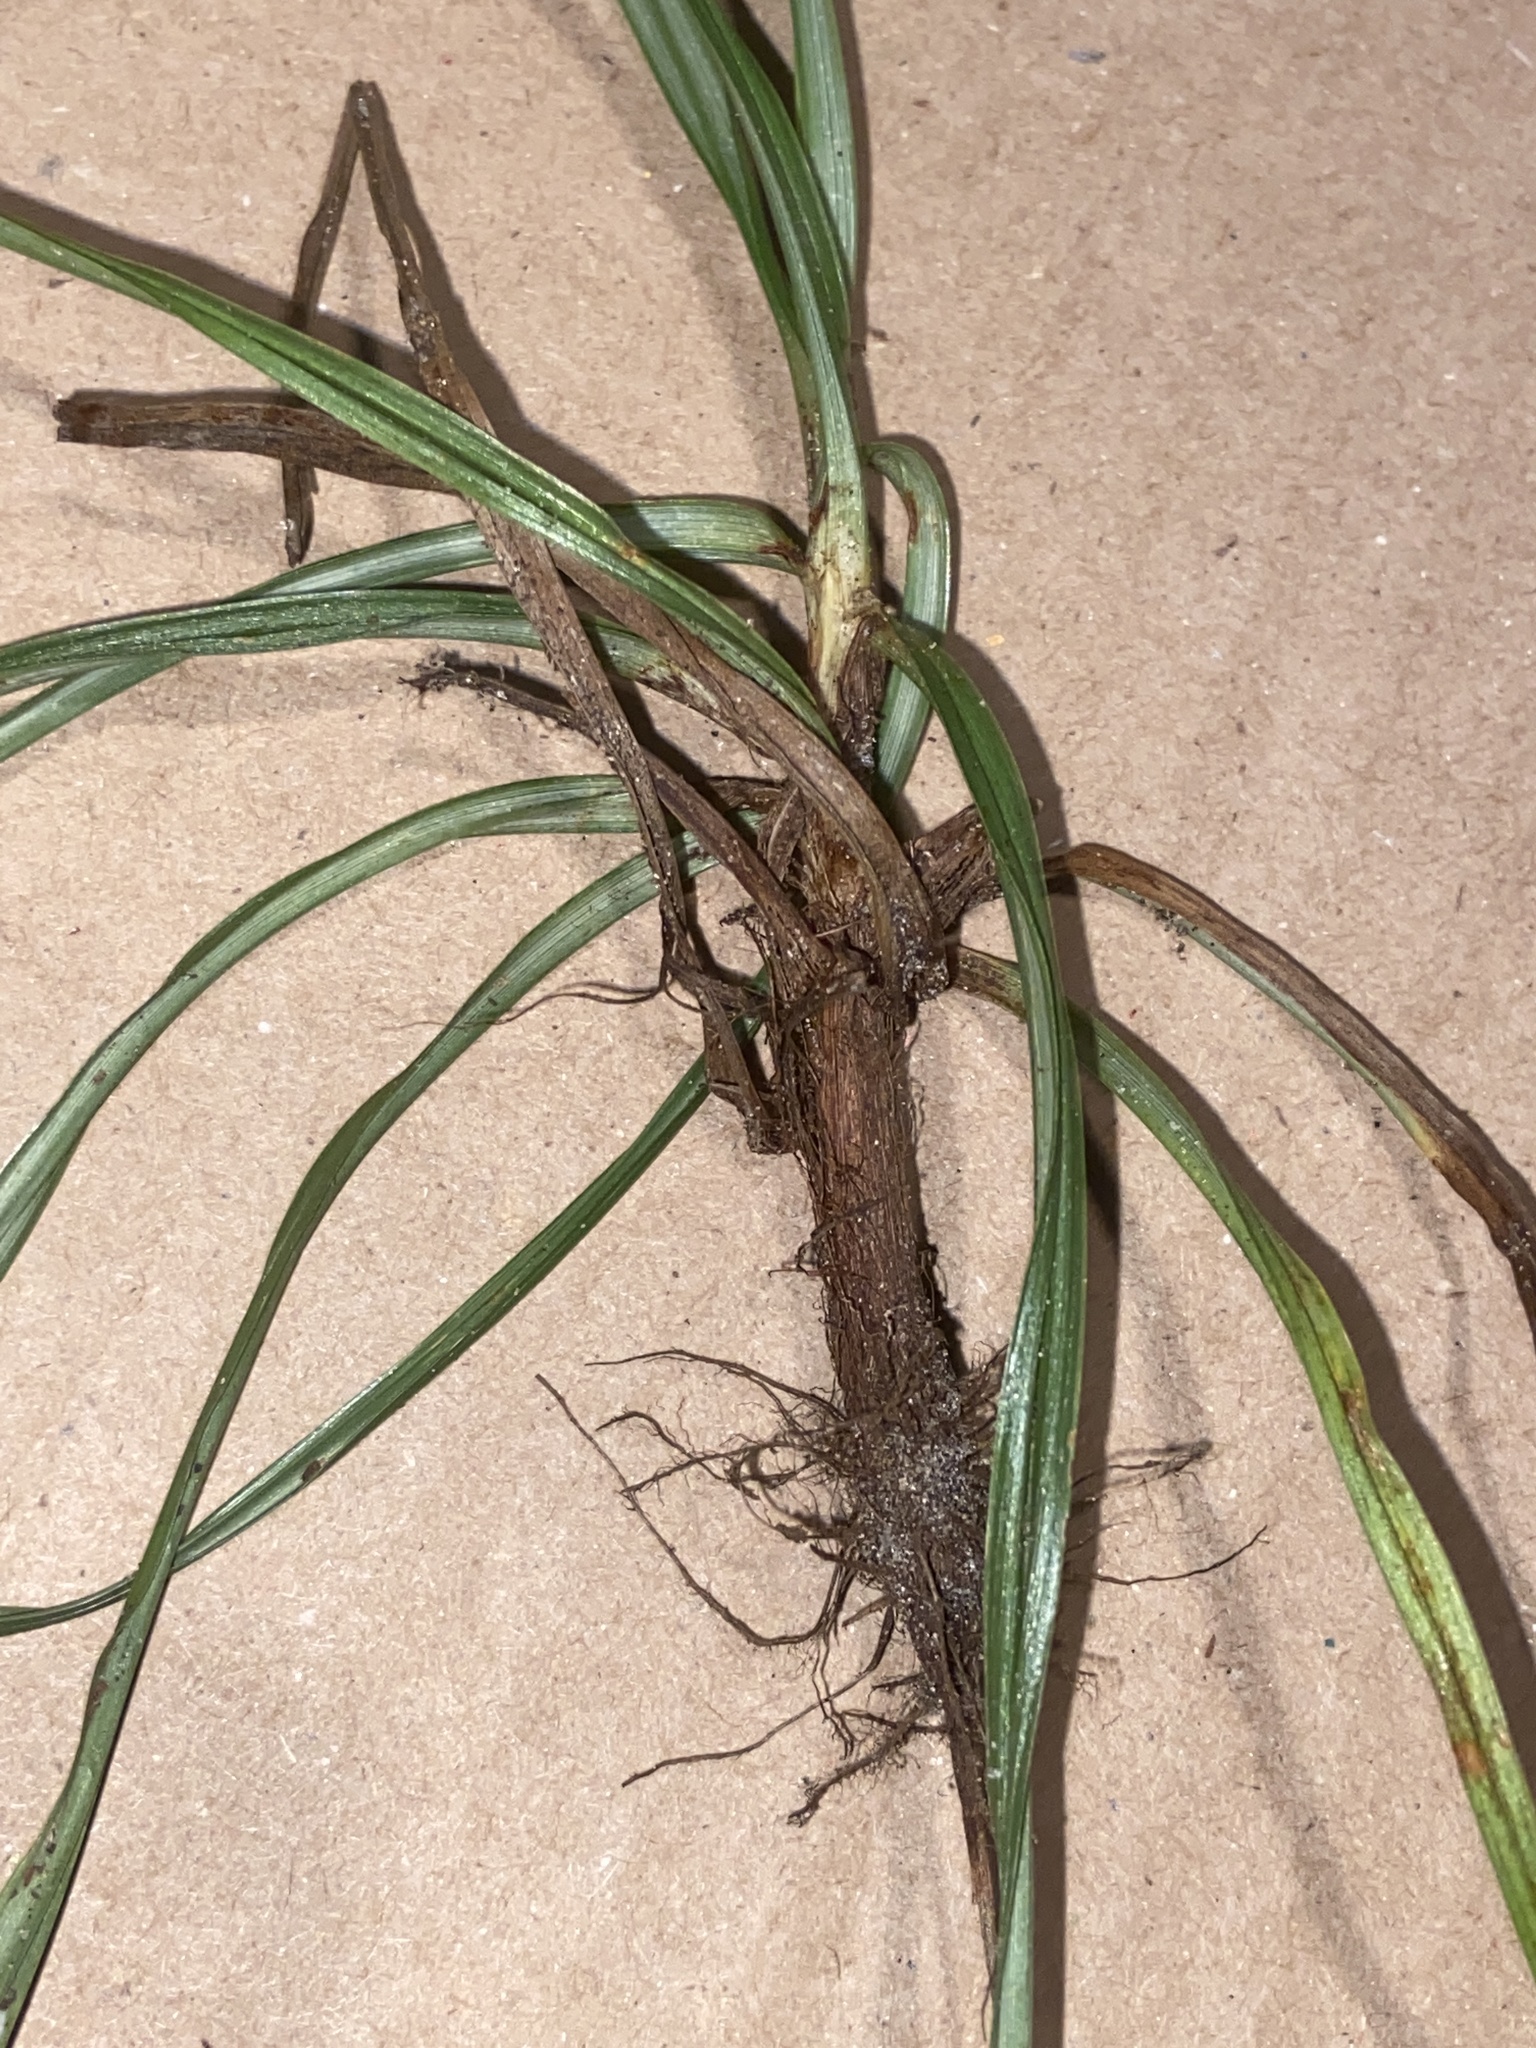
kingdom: Plantae
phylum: Tracheophyta
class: Liliopsida
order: Poales
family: Cyperaceae
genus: Cyperus
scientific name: Cyperus rotundus
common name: Nutgrass
